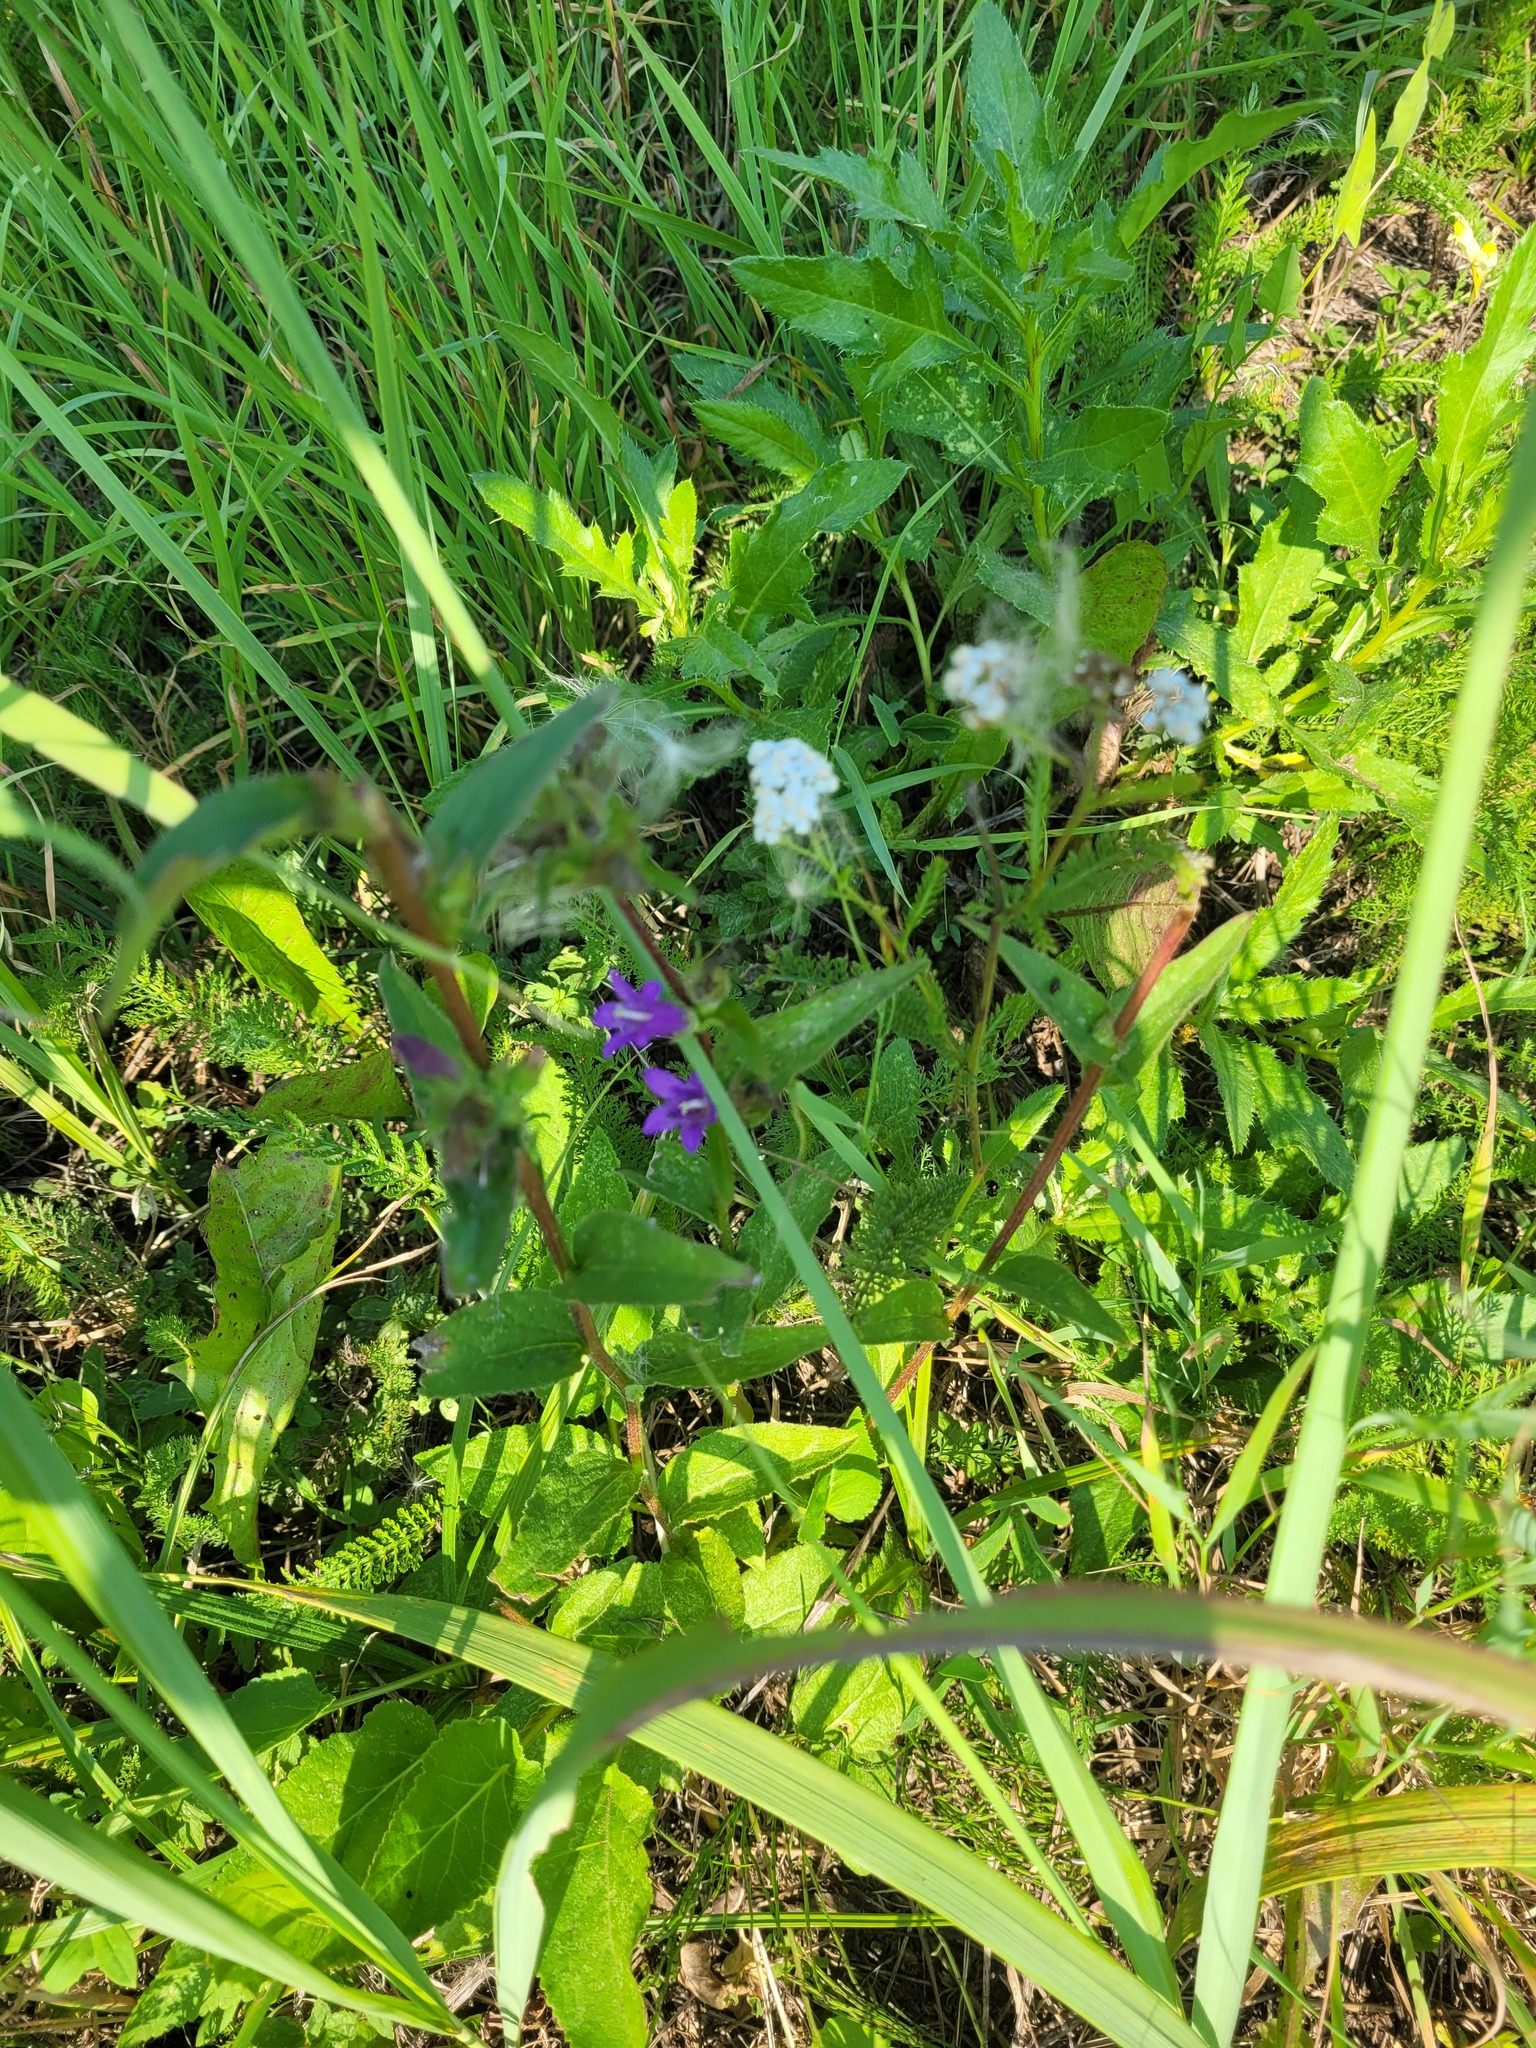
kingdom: Plantae
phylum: Tracheophyta
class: Magnoliopsida
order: Asterales
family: Campanulaceae
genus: Campanula
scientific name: Campanula glomerata
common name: Clustered bellflower
